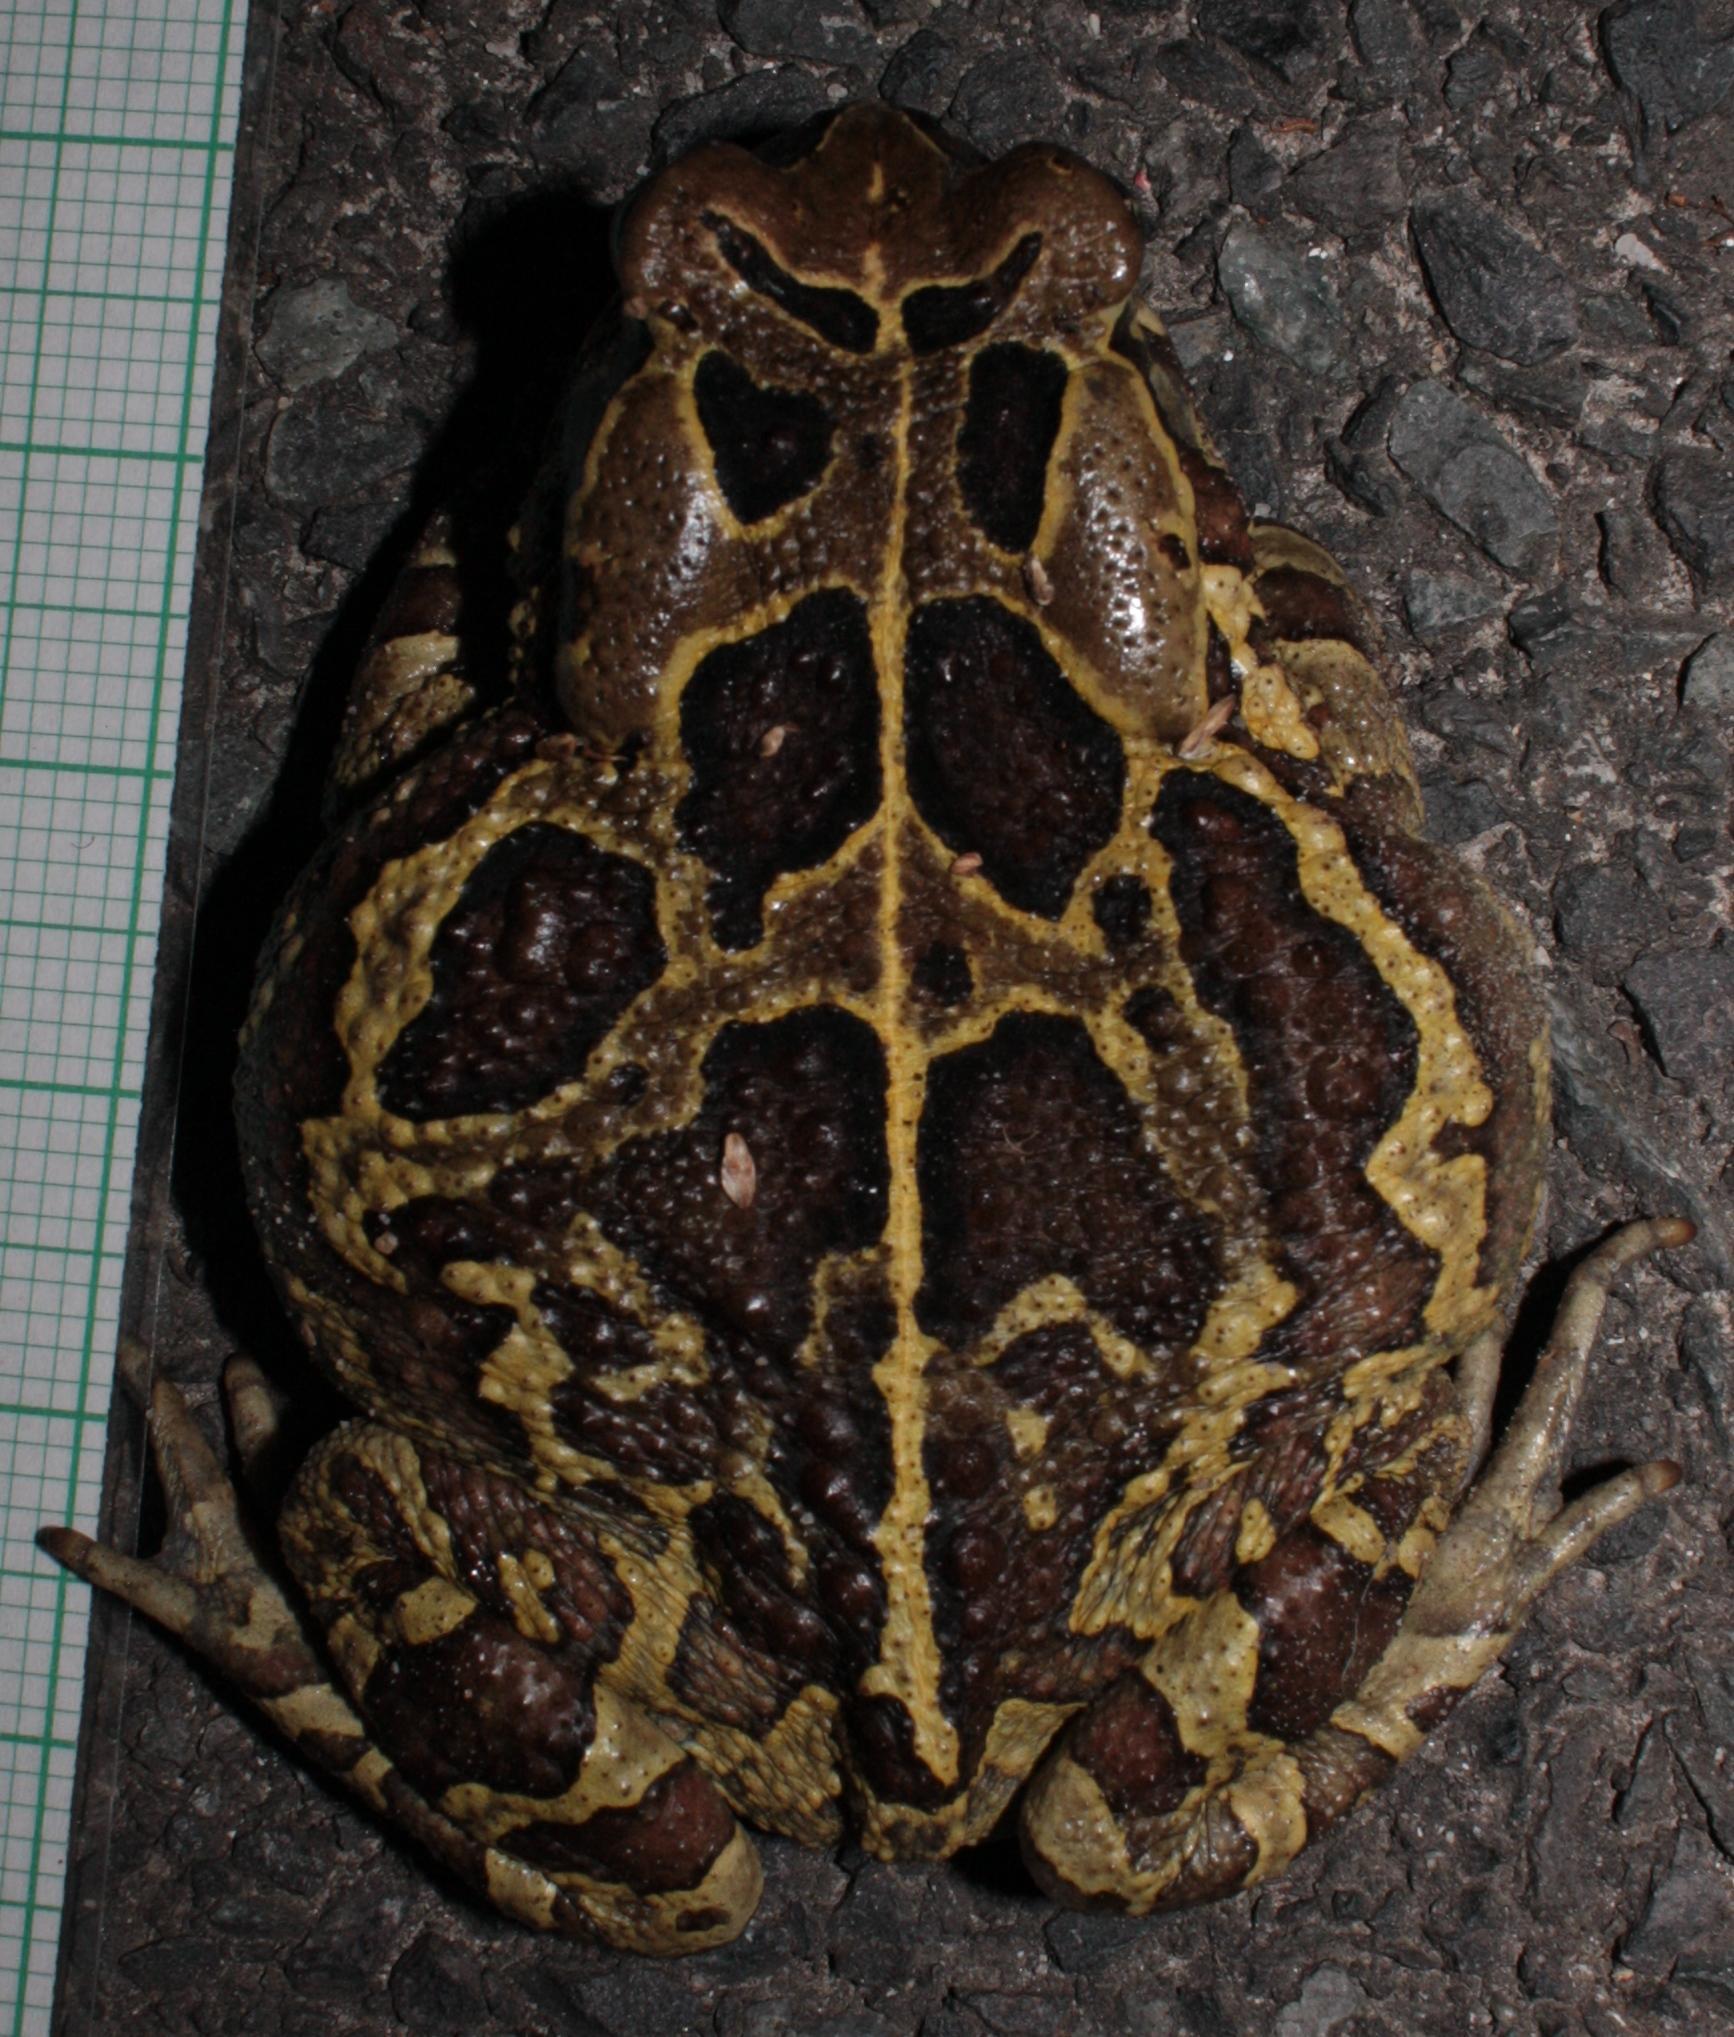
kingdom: Animalia
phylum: Chordata
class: Amphibia
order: Anura
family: Bufonidae
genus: Sclerophrys
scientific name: Sclerophrys pantherina
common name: Panther toad
